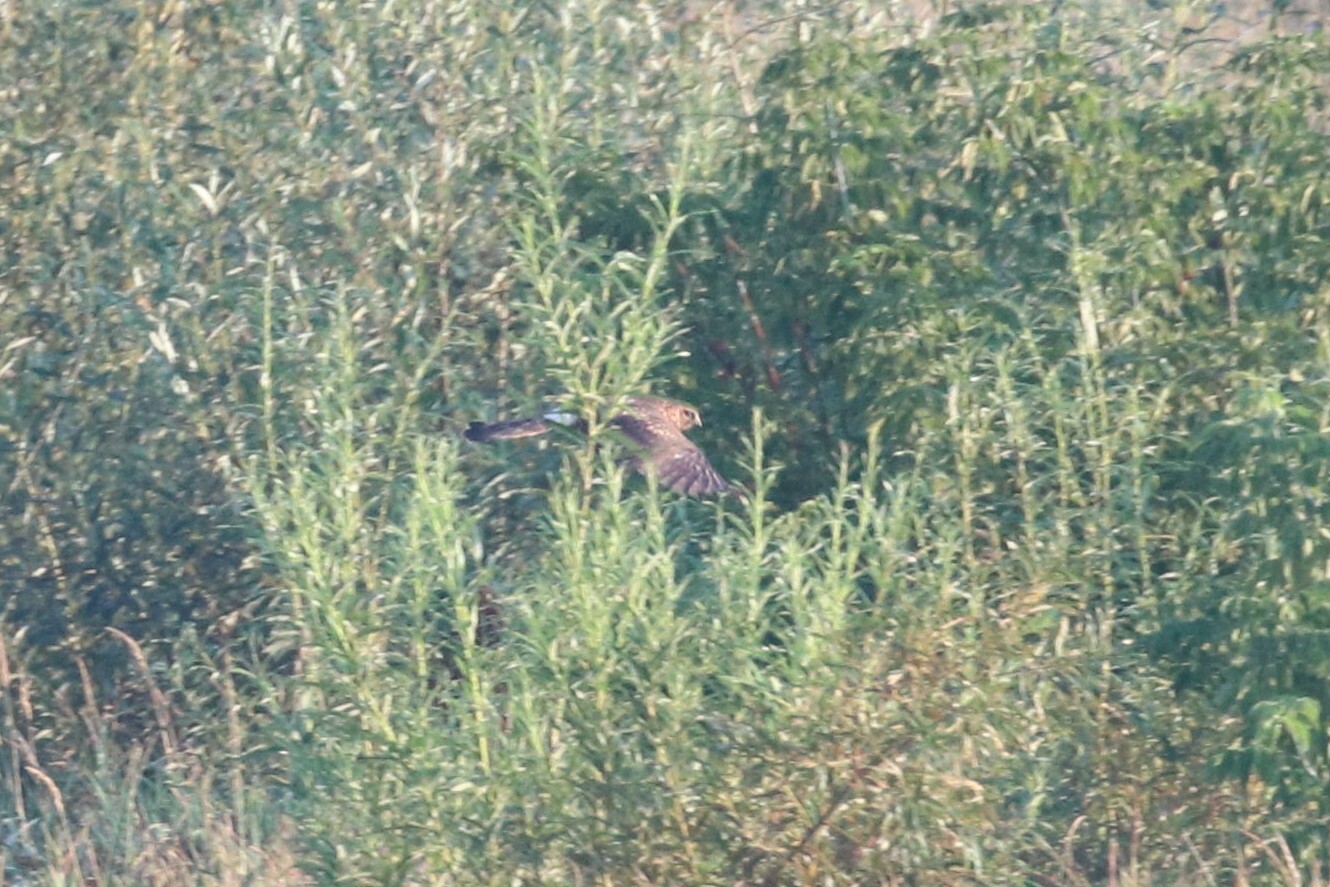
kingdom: Animalia
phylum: Chordata
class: Aves
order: Accipitriformes
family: Accipitridae
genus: Circus
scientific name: Circus cyaneus
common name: Hen harrier
